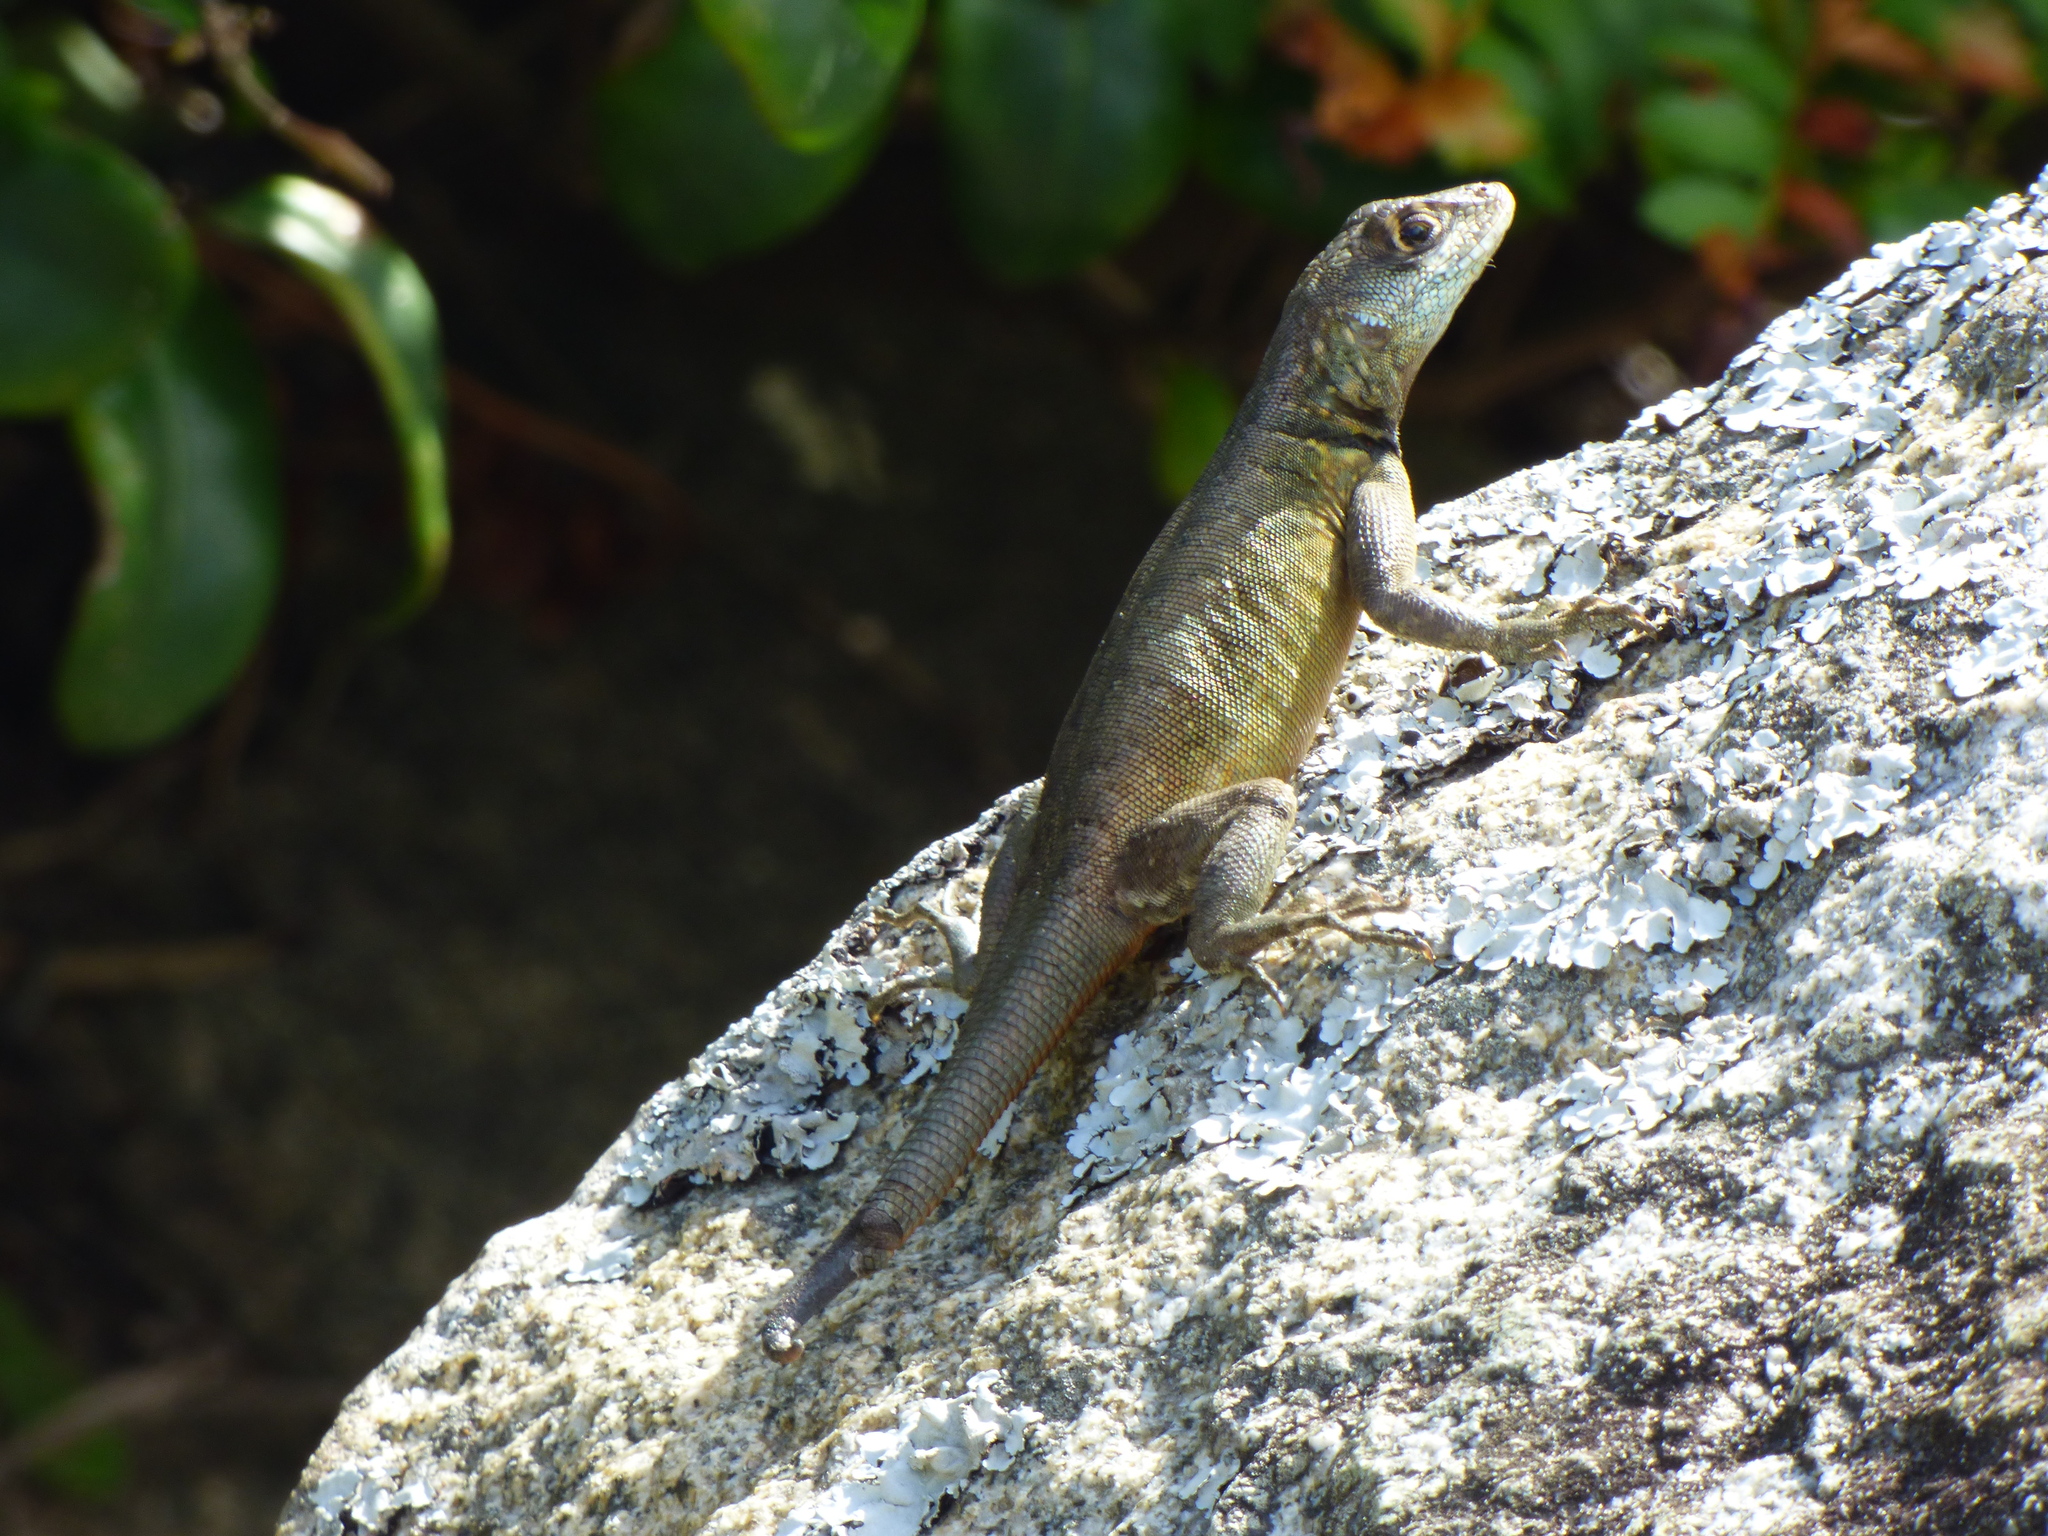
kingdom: Animalia
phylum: Chordata
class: Squamata
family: Tropiduridae
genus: Tropidurus
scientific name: Tropidurus imbituba
